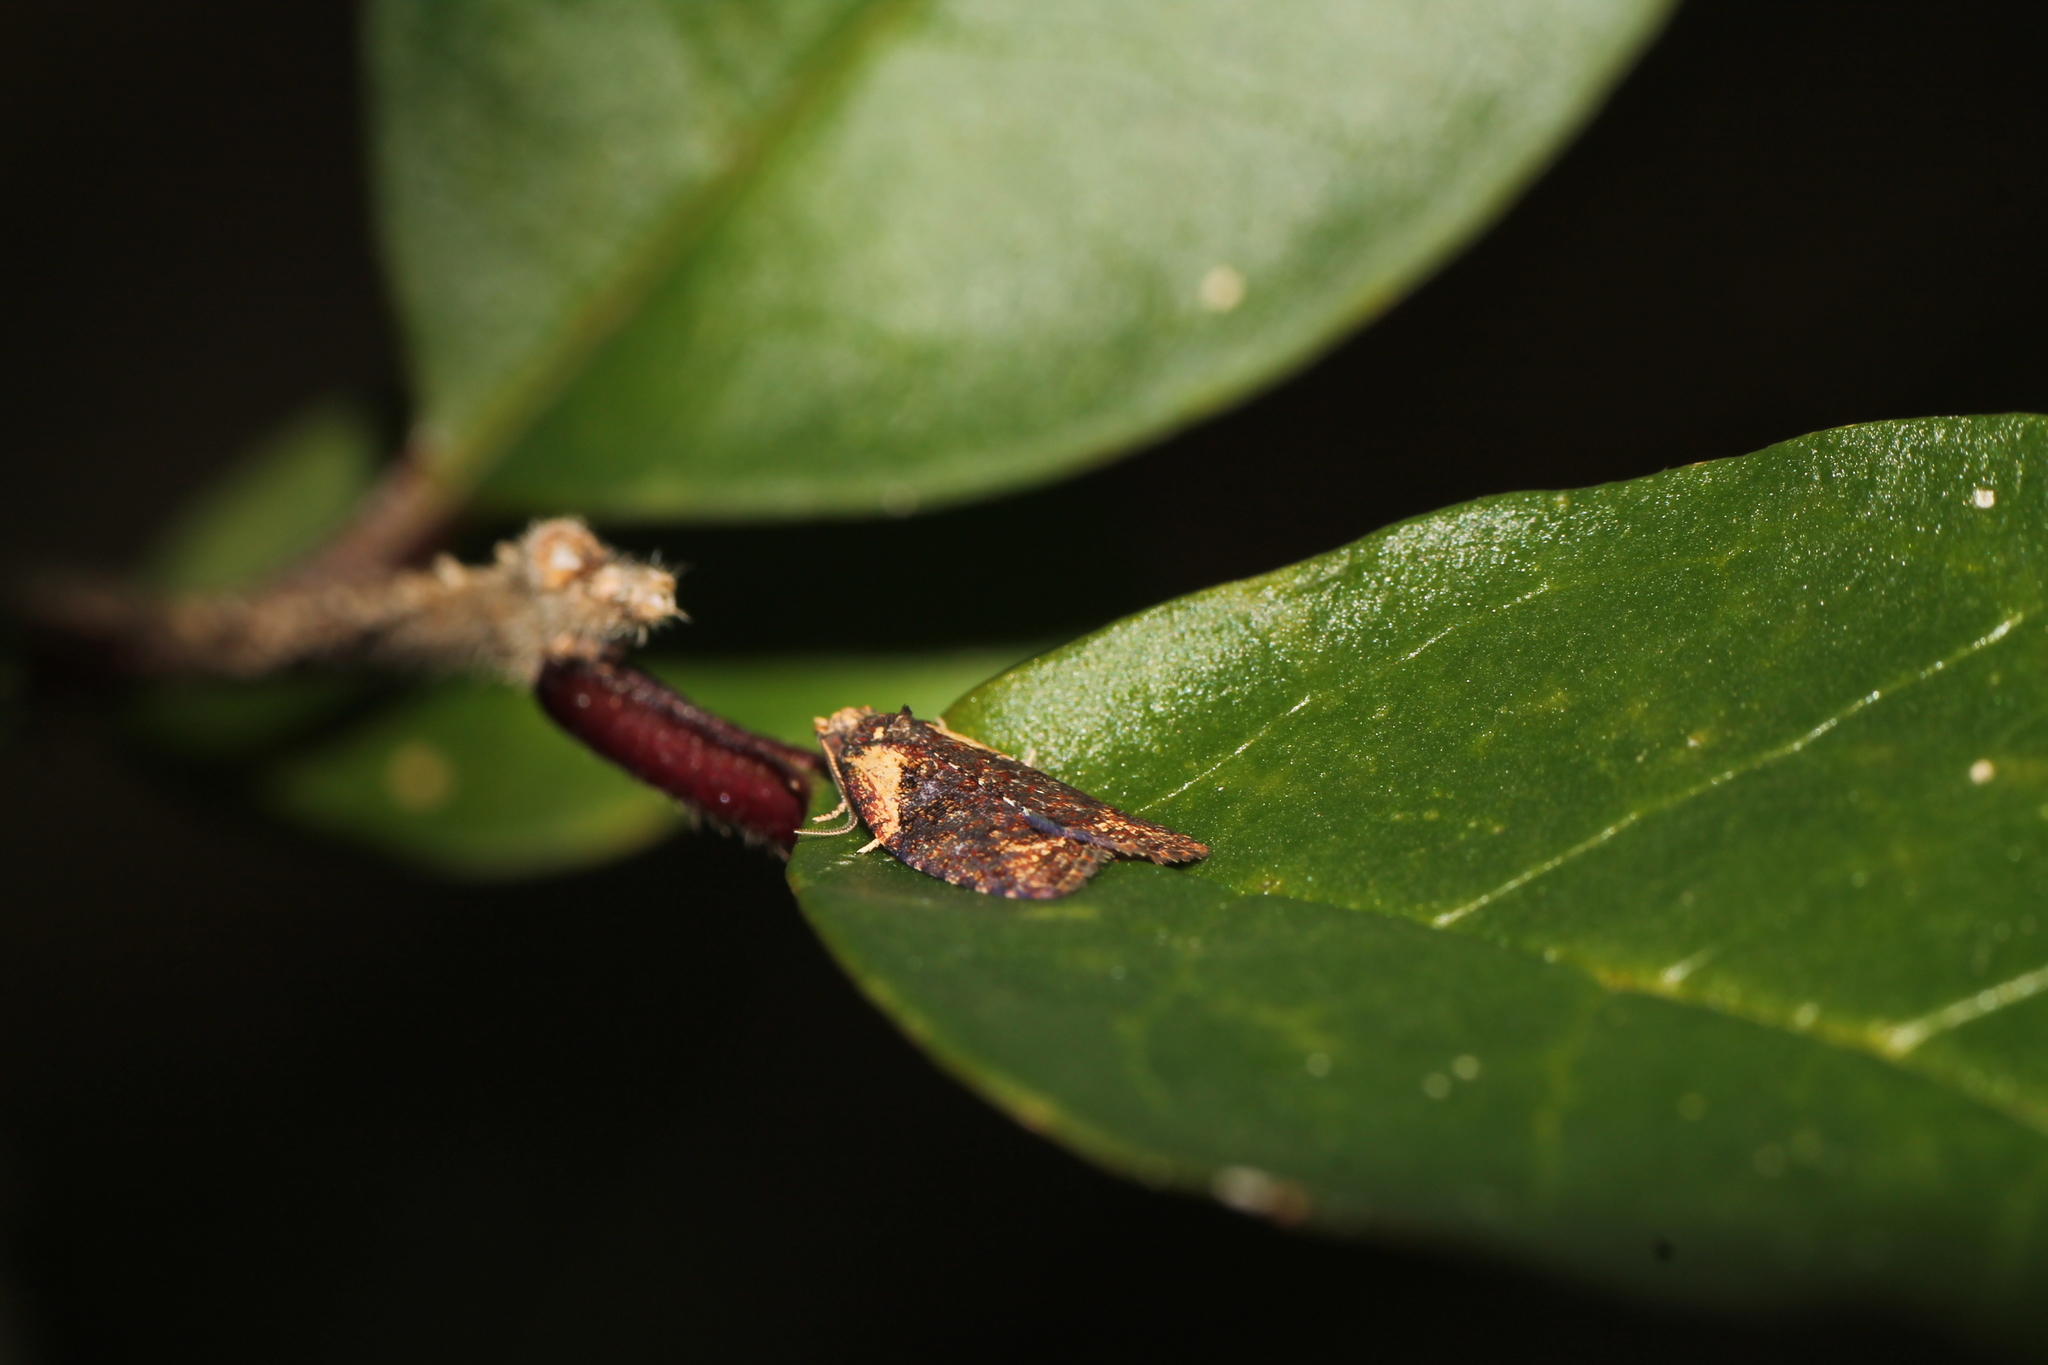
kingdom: Animalia
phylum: Arthropoda
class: Insecta
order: Lepidoptera
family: Tortricidae
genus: Capua
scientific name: Capua intractana
